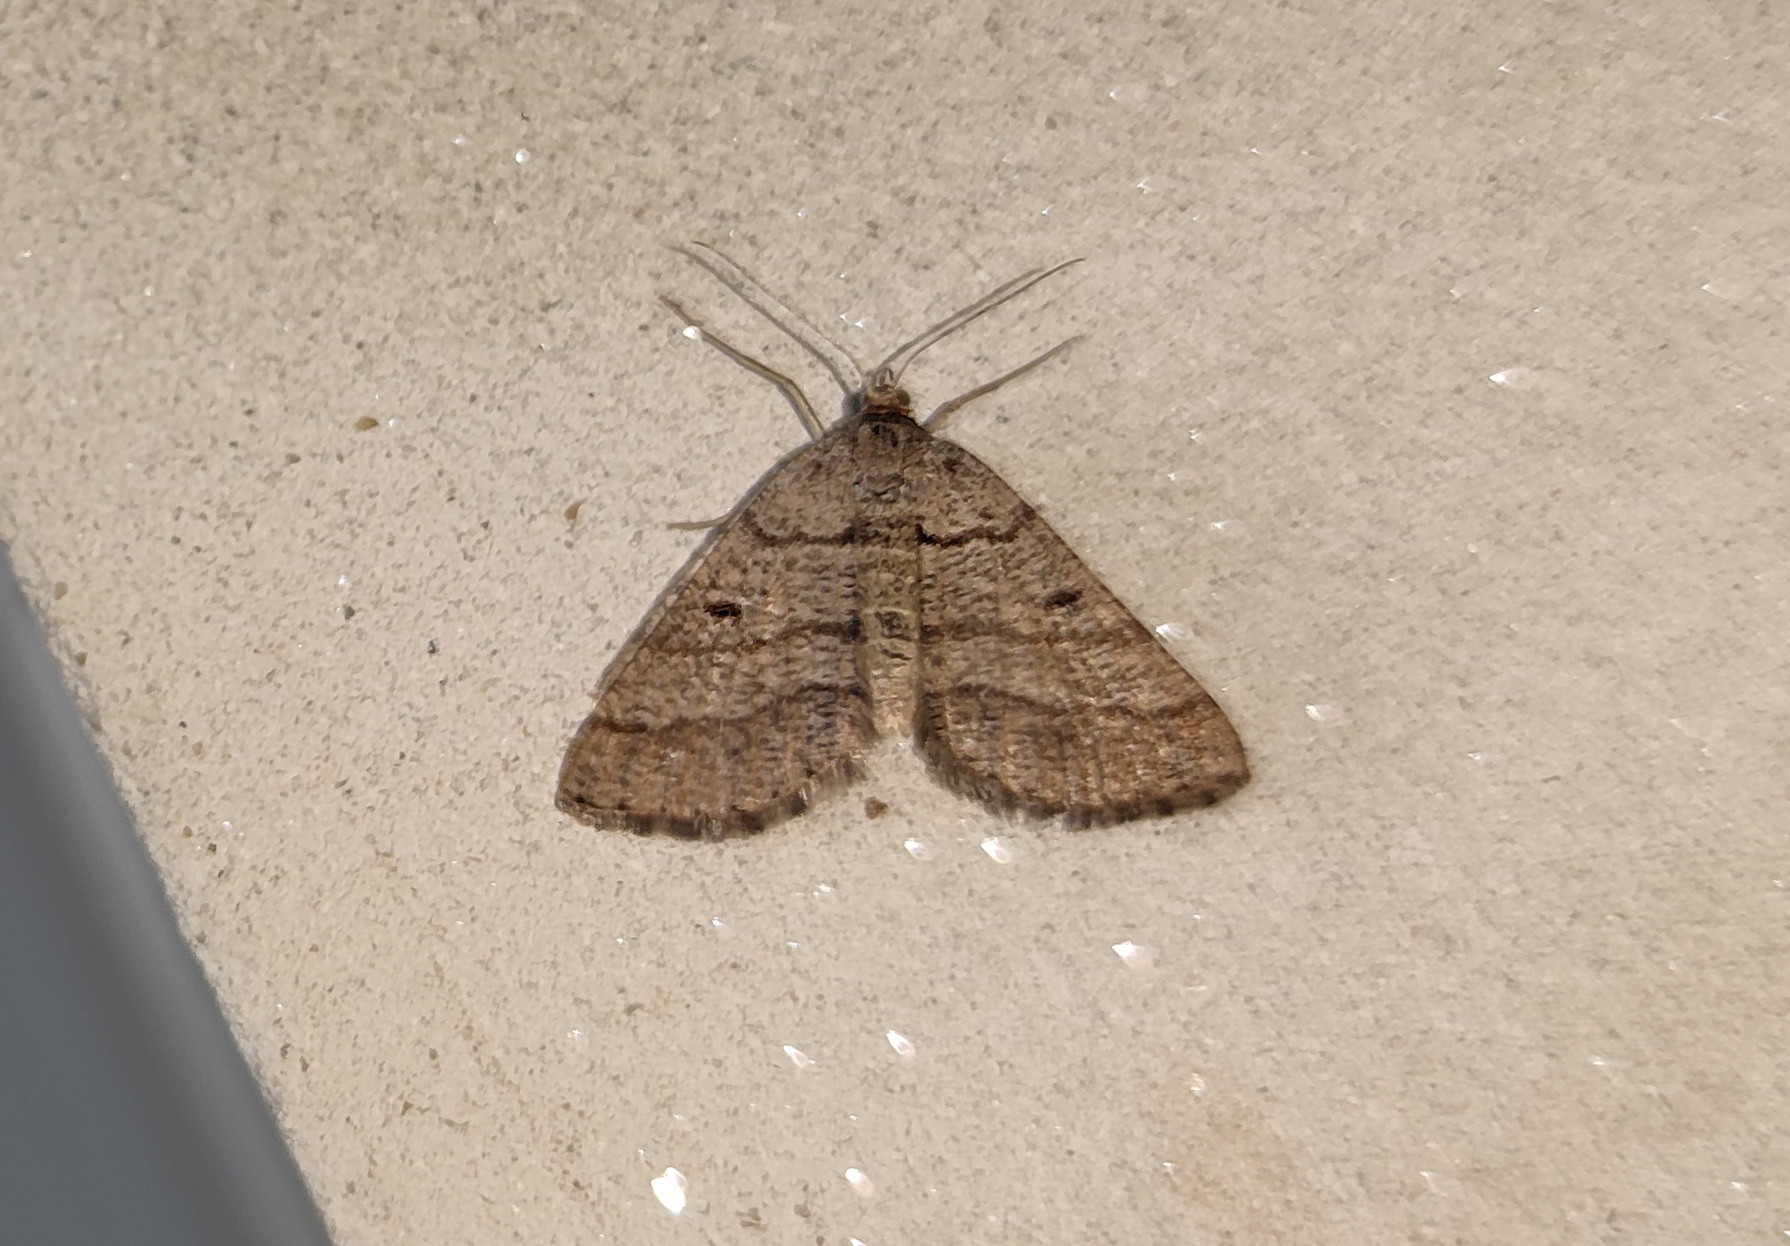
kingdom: Animalia
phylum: Arthropoda
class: Insecta
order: Lepidoptera
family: Geometridae
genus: Tephrina
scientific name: Tephrina murinaria
